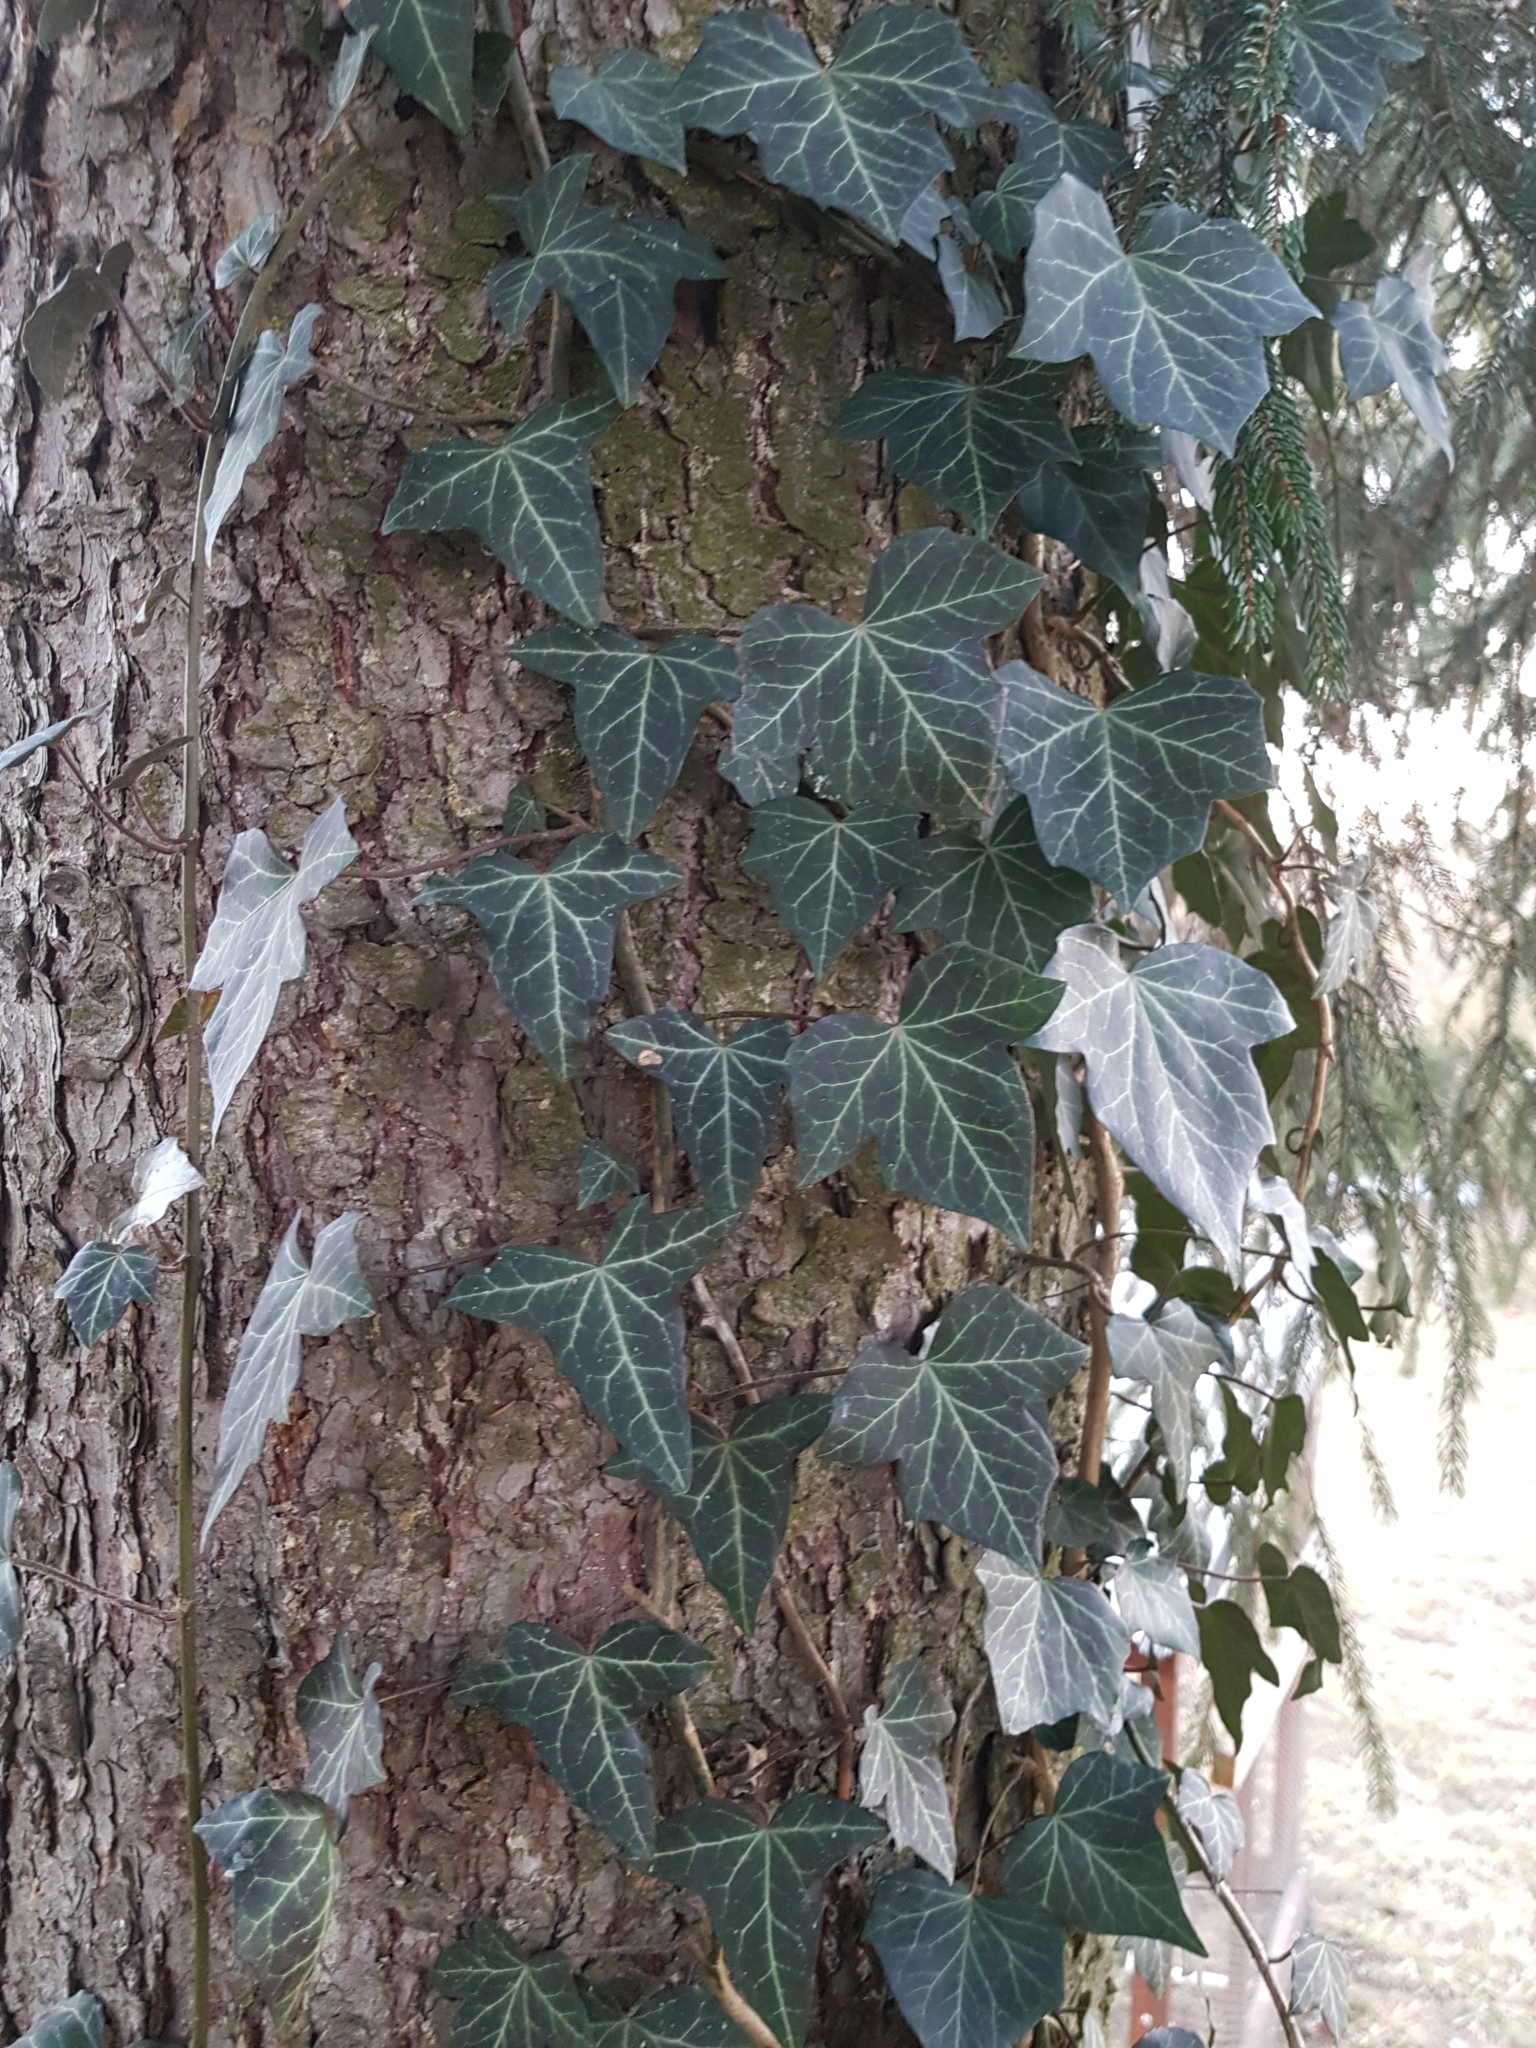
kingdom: Plantae
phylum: Tracheophyta
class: Magnoliopsida
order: Apiales
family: Araliaceae
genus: Hedera
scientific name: Hedera helix
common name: Ivy
